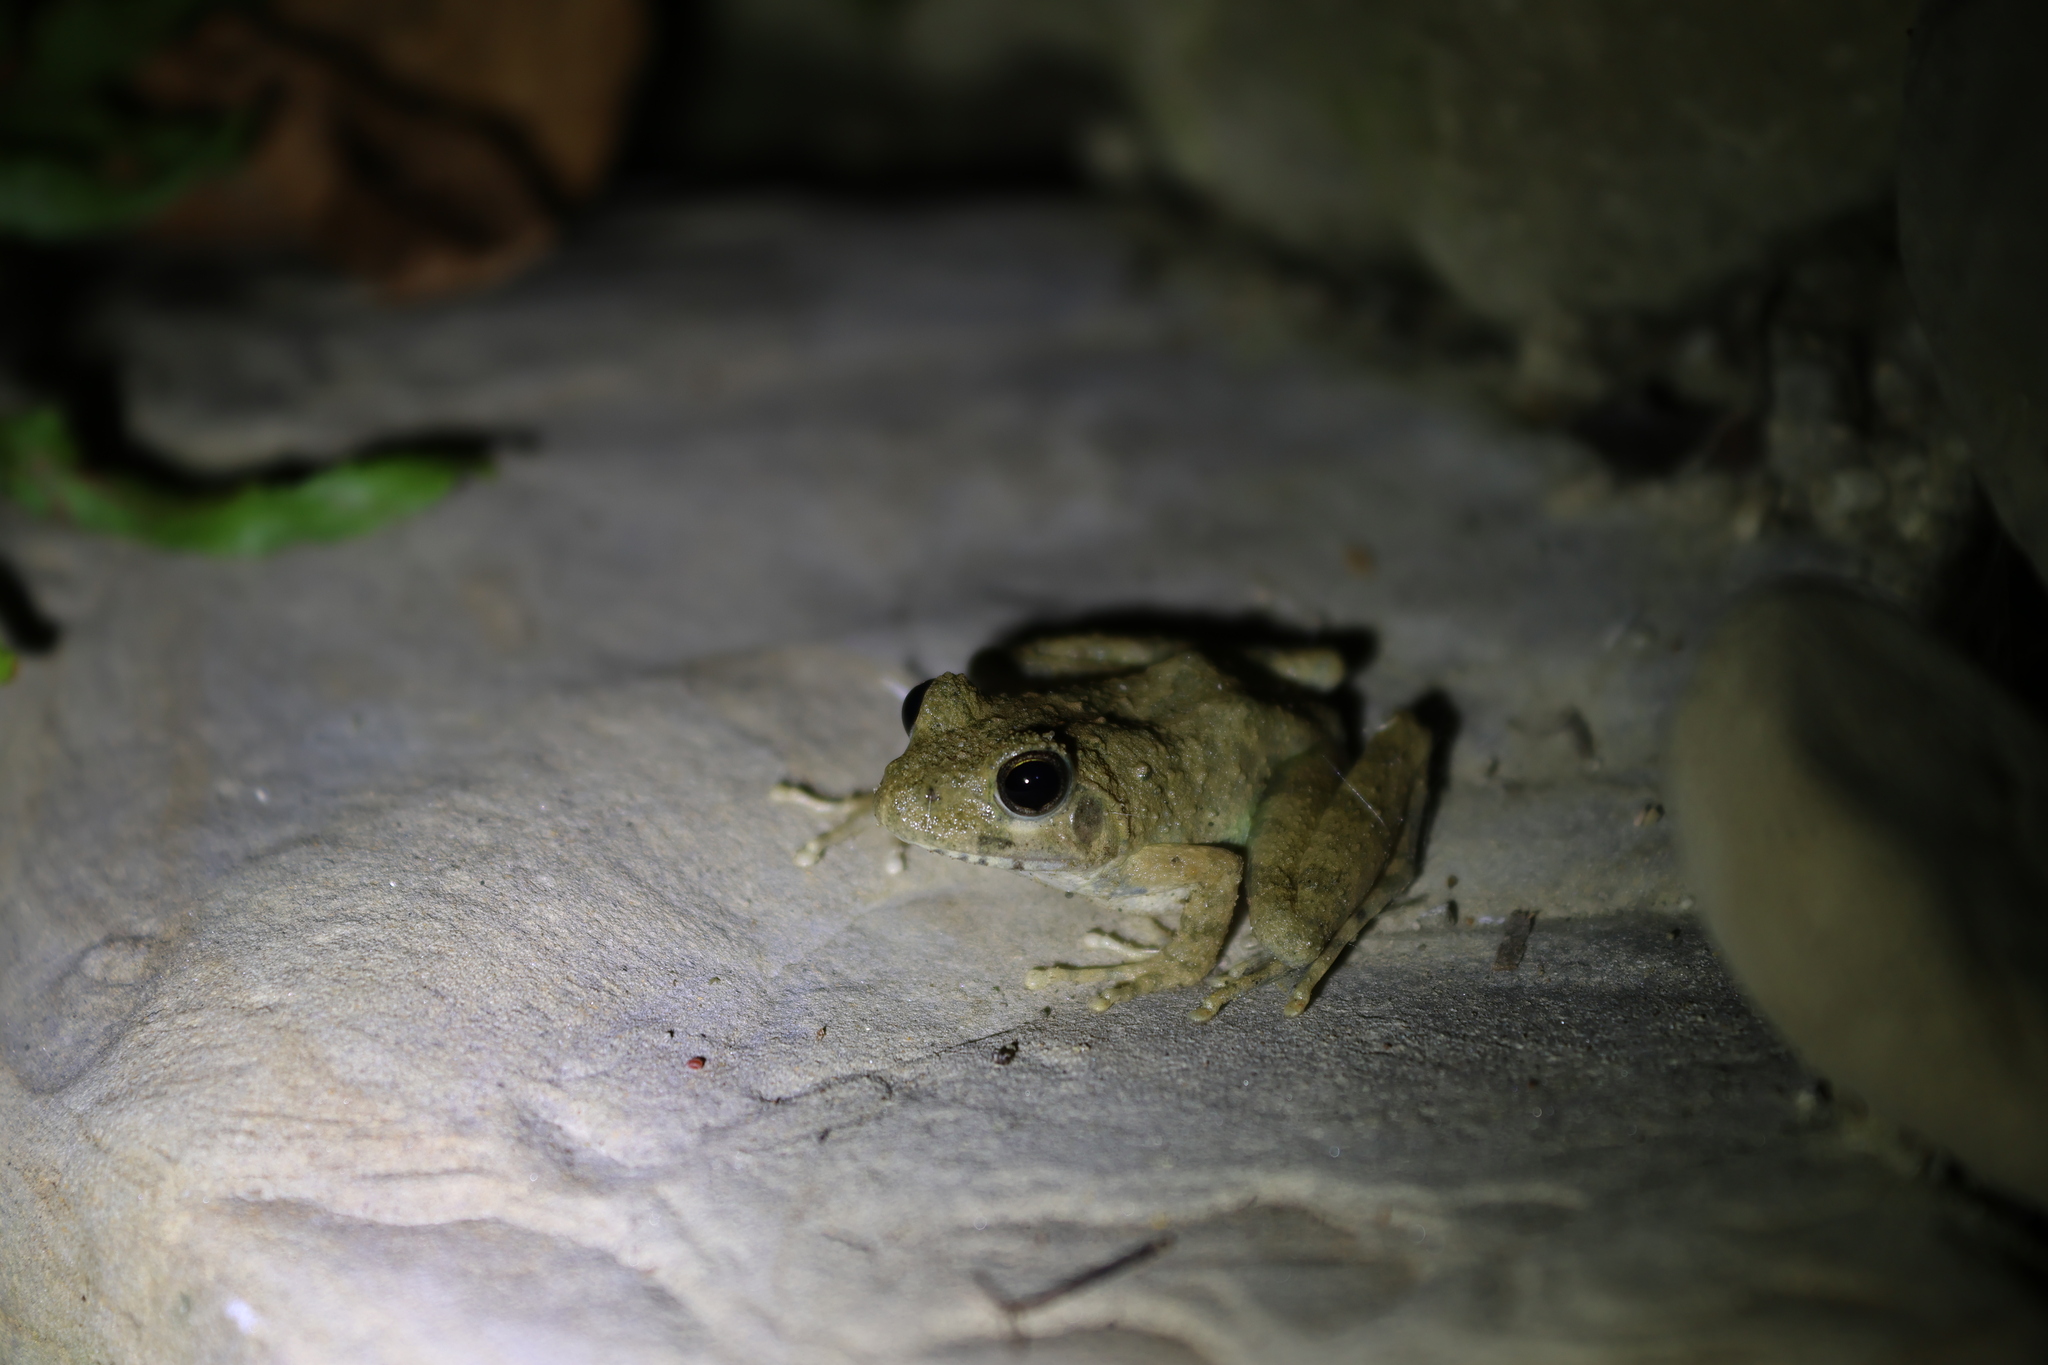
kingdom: Animalia
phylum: Chordata
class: Amphibia
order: Anura
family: Rhacophoridae
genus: Buergeria
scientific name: Buergeria otai
